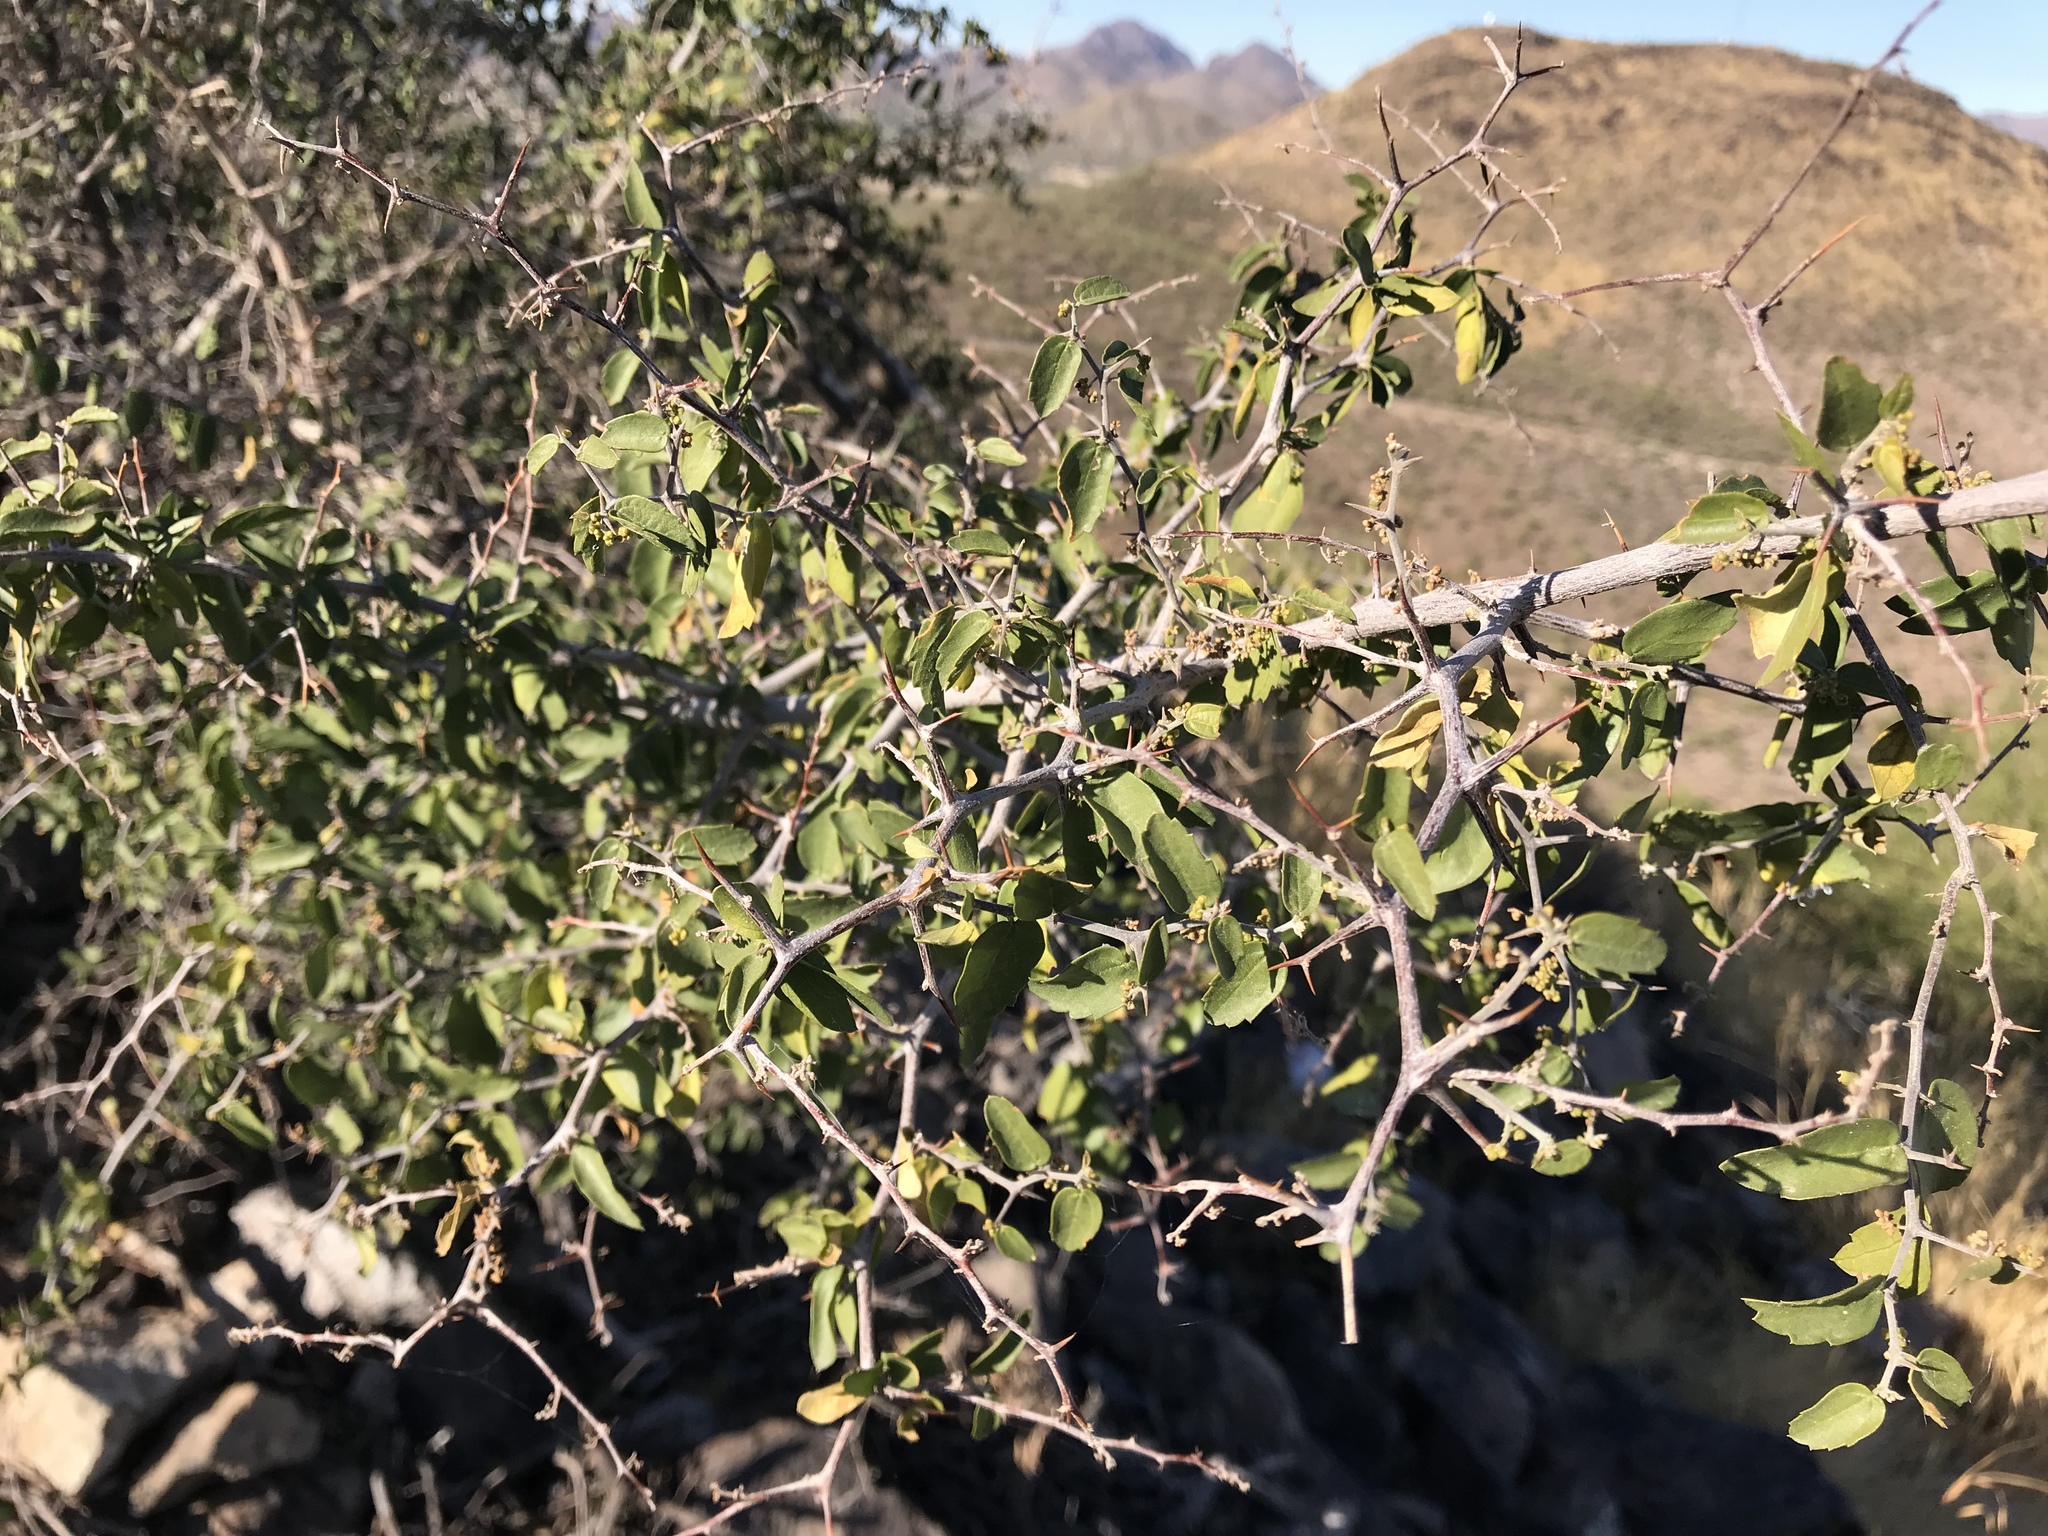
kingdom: Plantae
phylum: Tracheophyta
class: Magnoliopsida
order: Rosales
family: Cannabaceae
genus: Celtis
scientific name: Celtis pallida
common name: Desert hackberry
